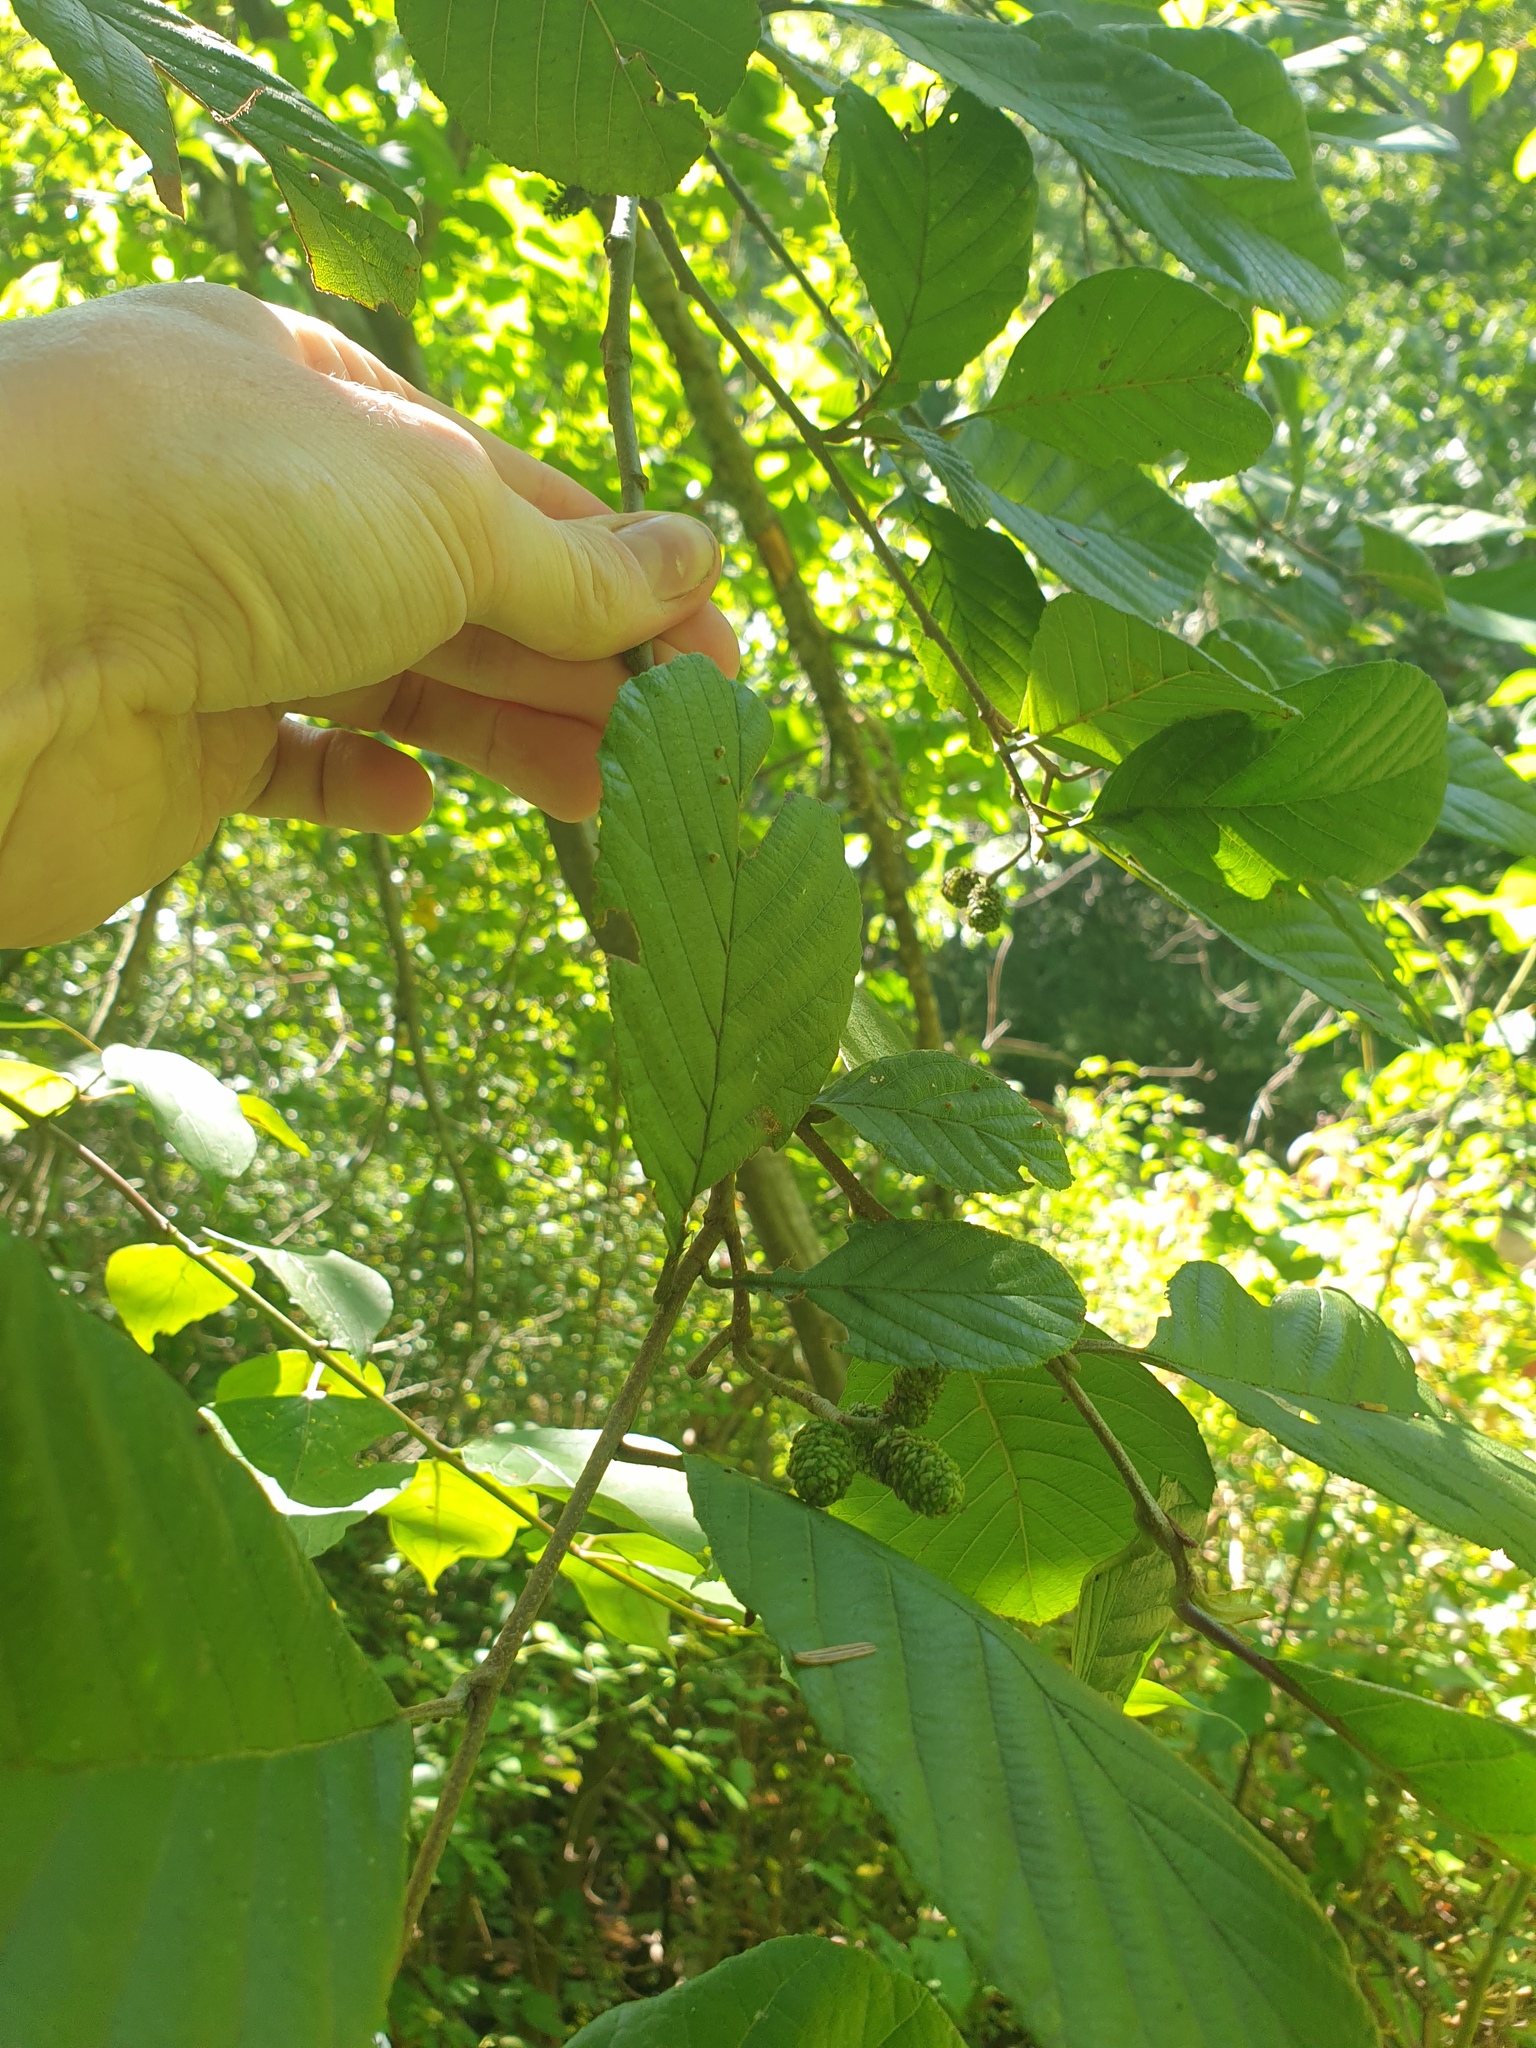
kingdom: Plantae
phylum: Tracheophyta
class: Magnoliopsida
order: Fagales
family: Betulaceae
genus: Alnus
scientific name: Alnus serrulata
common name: Hazel alder
